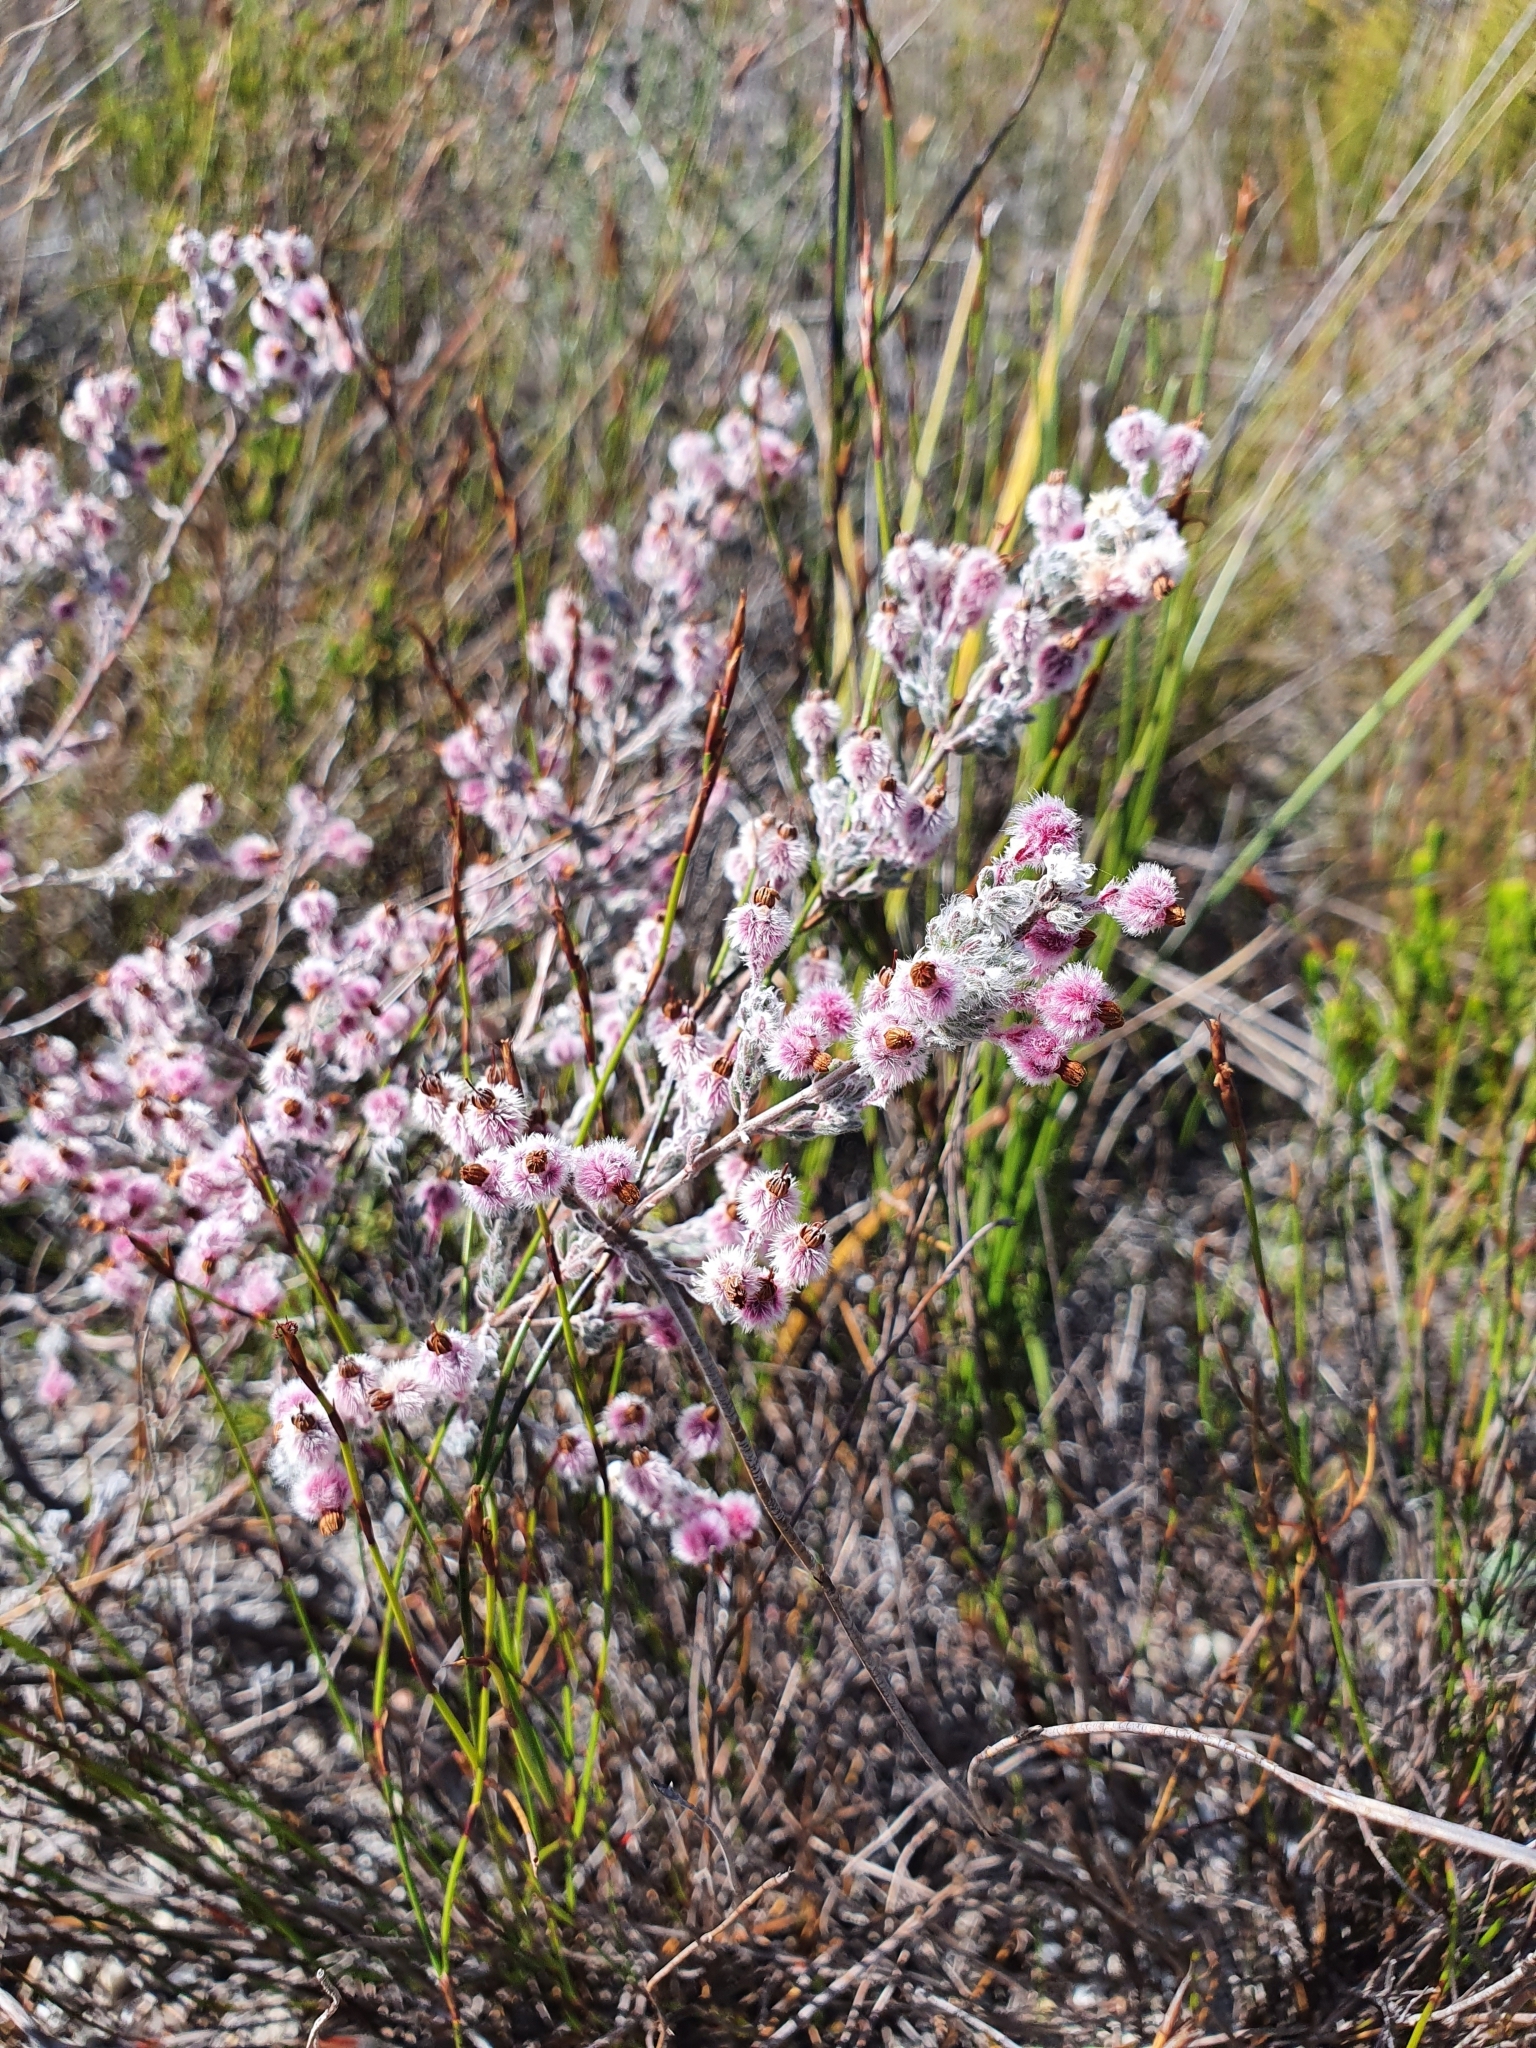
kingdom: Plantae
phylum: Tracheophyta
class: Magnoliopsida
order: Ericales
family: Ericaceae
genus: Erica
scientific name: Erica bruniades
